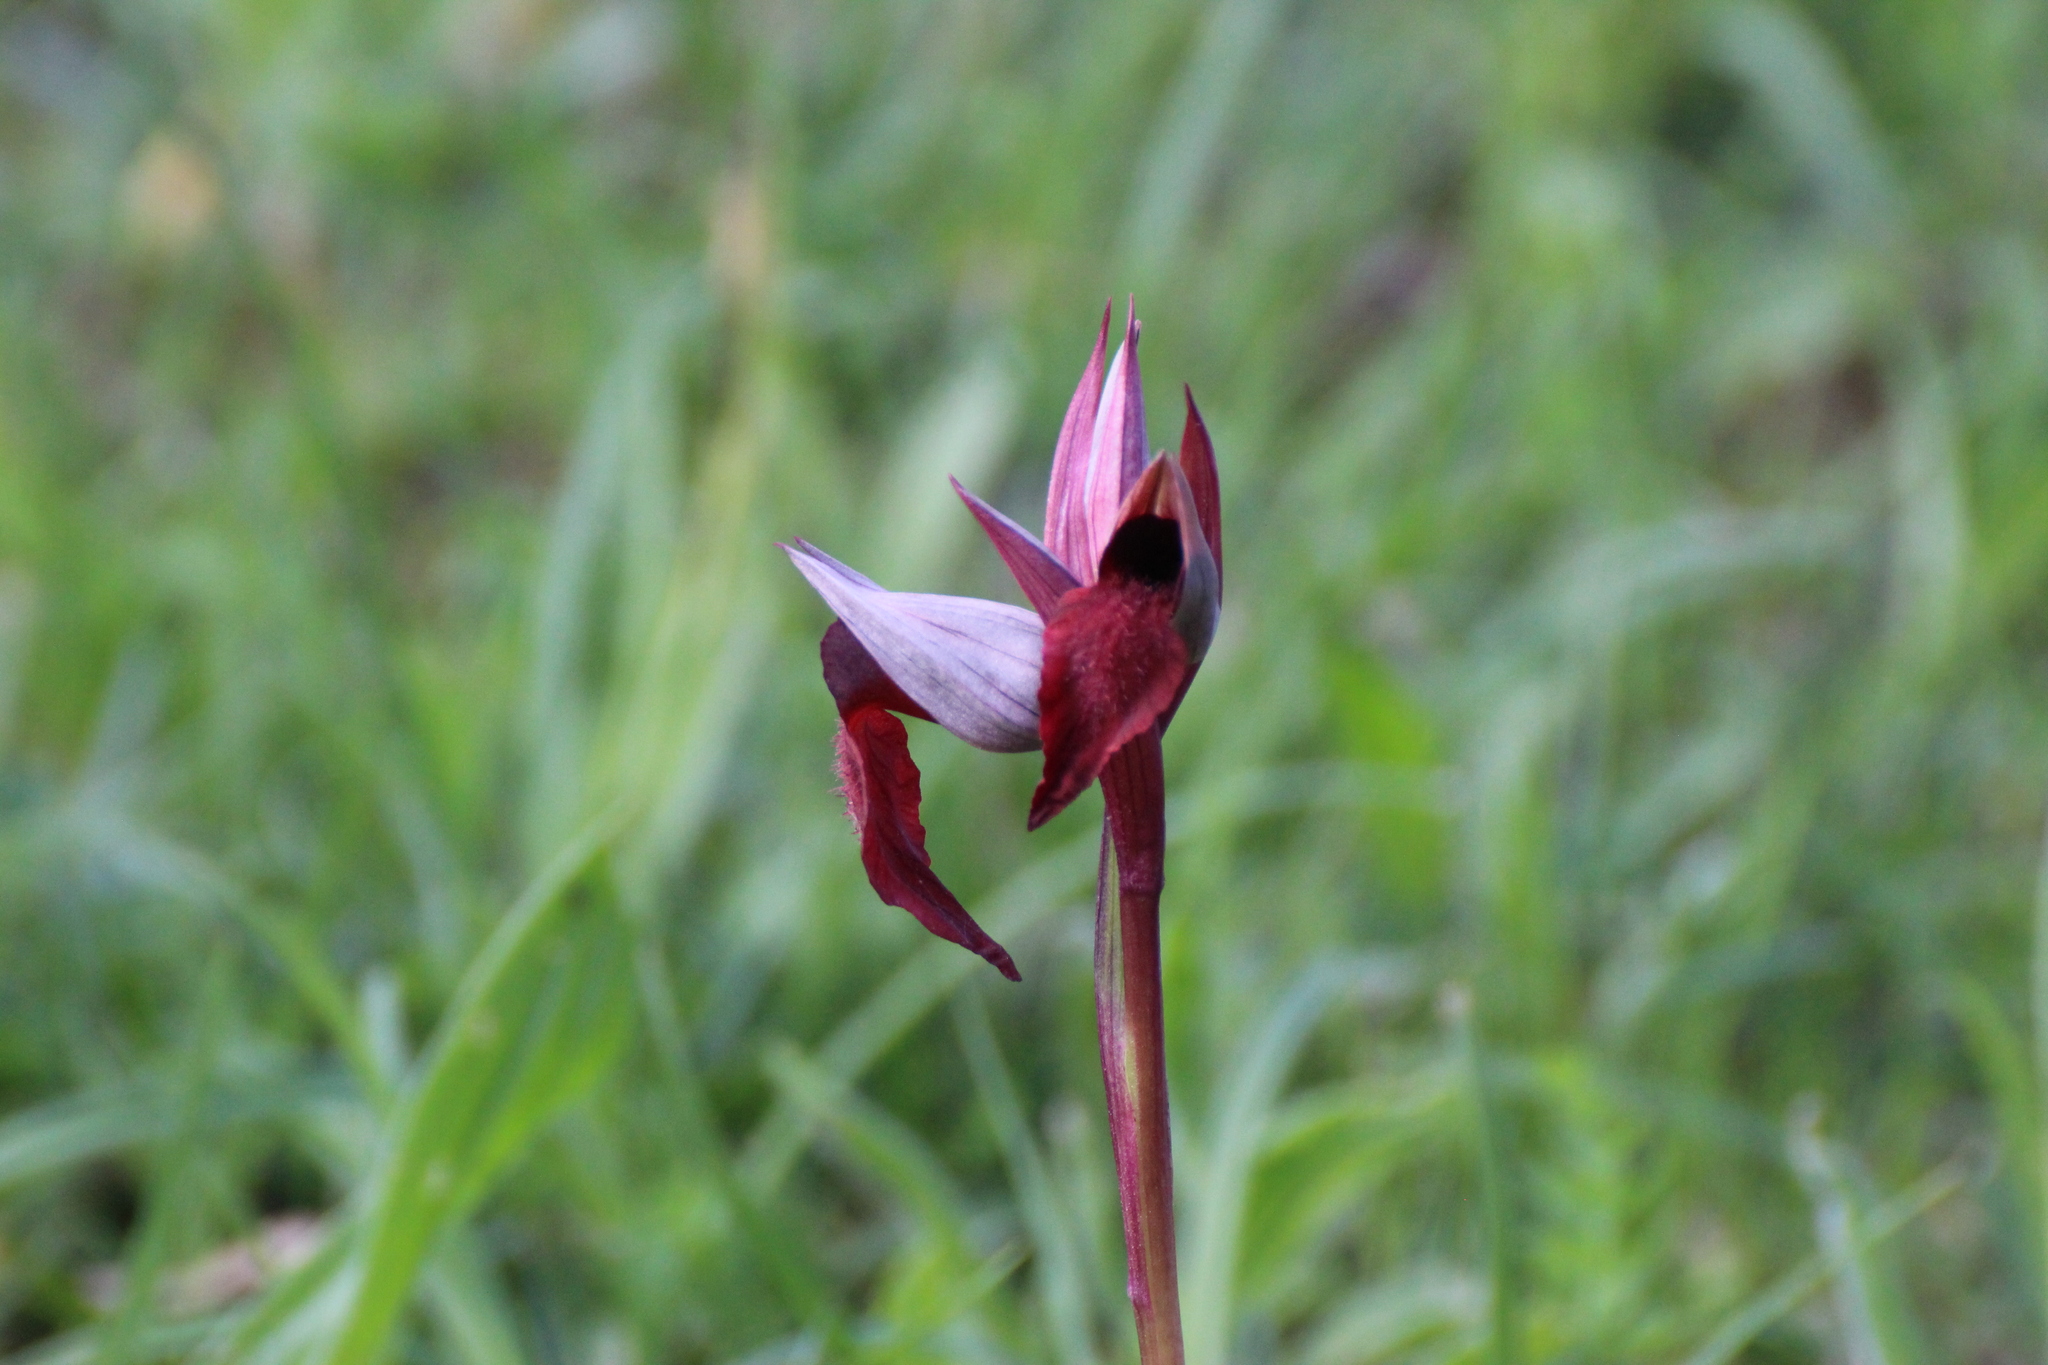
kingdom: Plantae
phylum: Tracheophyta
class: Liliopsida
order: Asparagales
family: Orchidaceae
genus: Serapias
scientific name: Serapias cordigera
